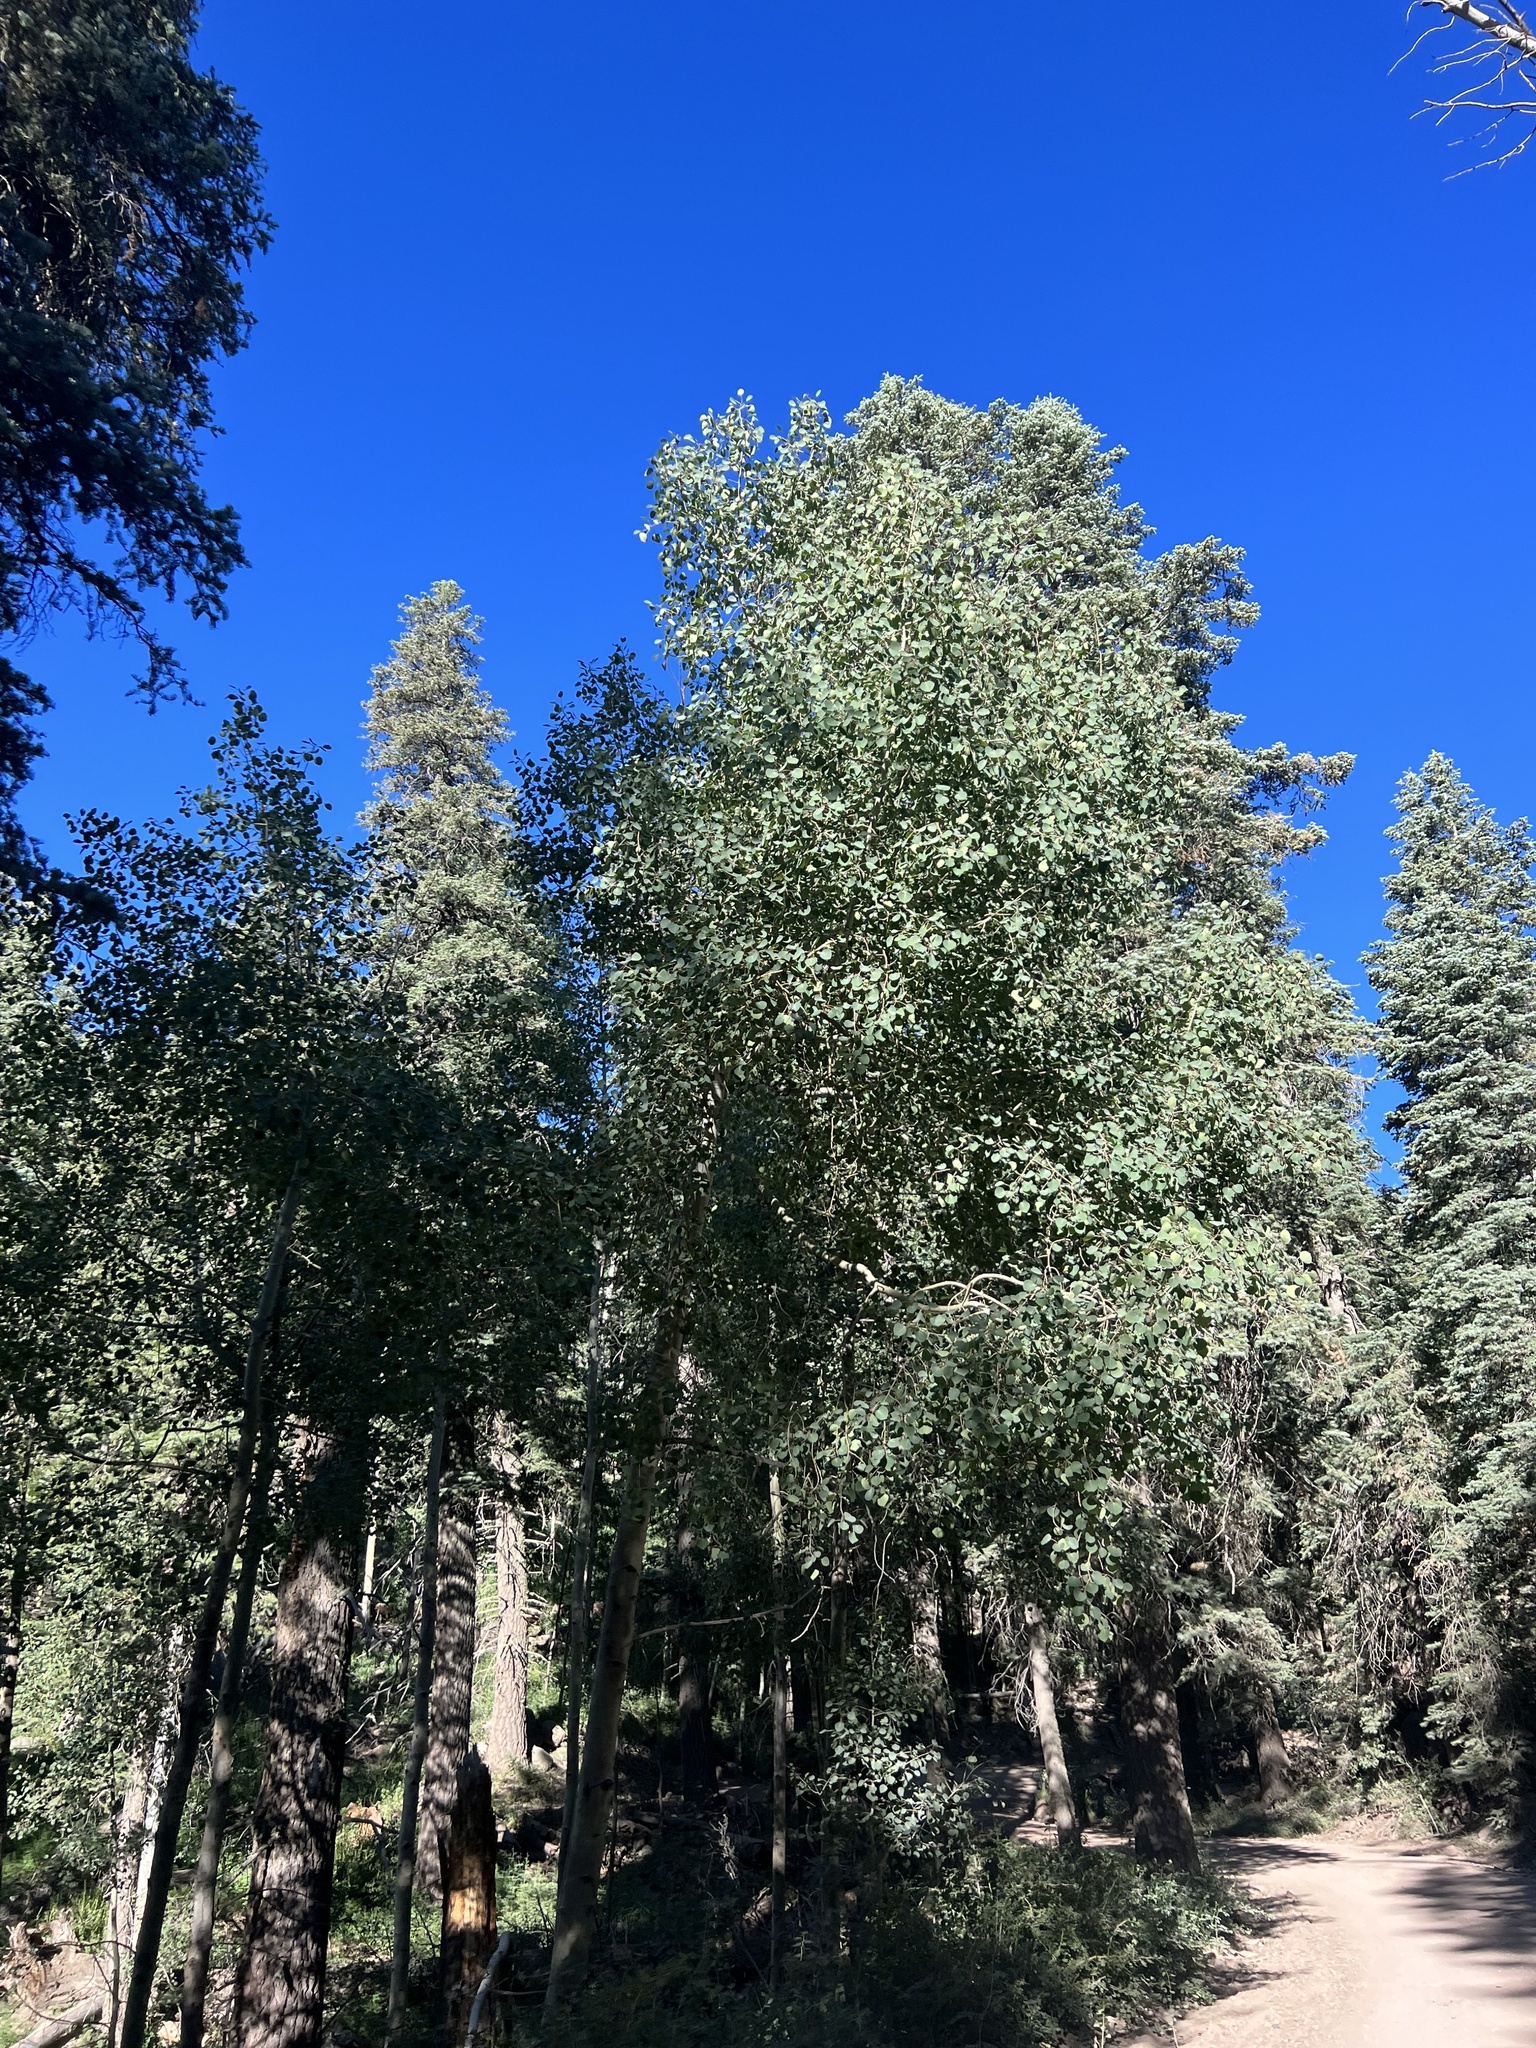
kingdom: Plantae
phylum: Tracheophyta
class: Magnoliopsida
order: Malpighiales
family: Salicaceae
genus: Populus
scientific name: Populus tremuloides
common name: Quaking aspen
